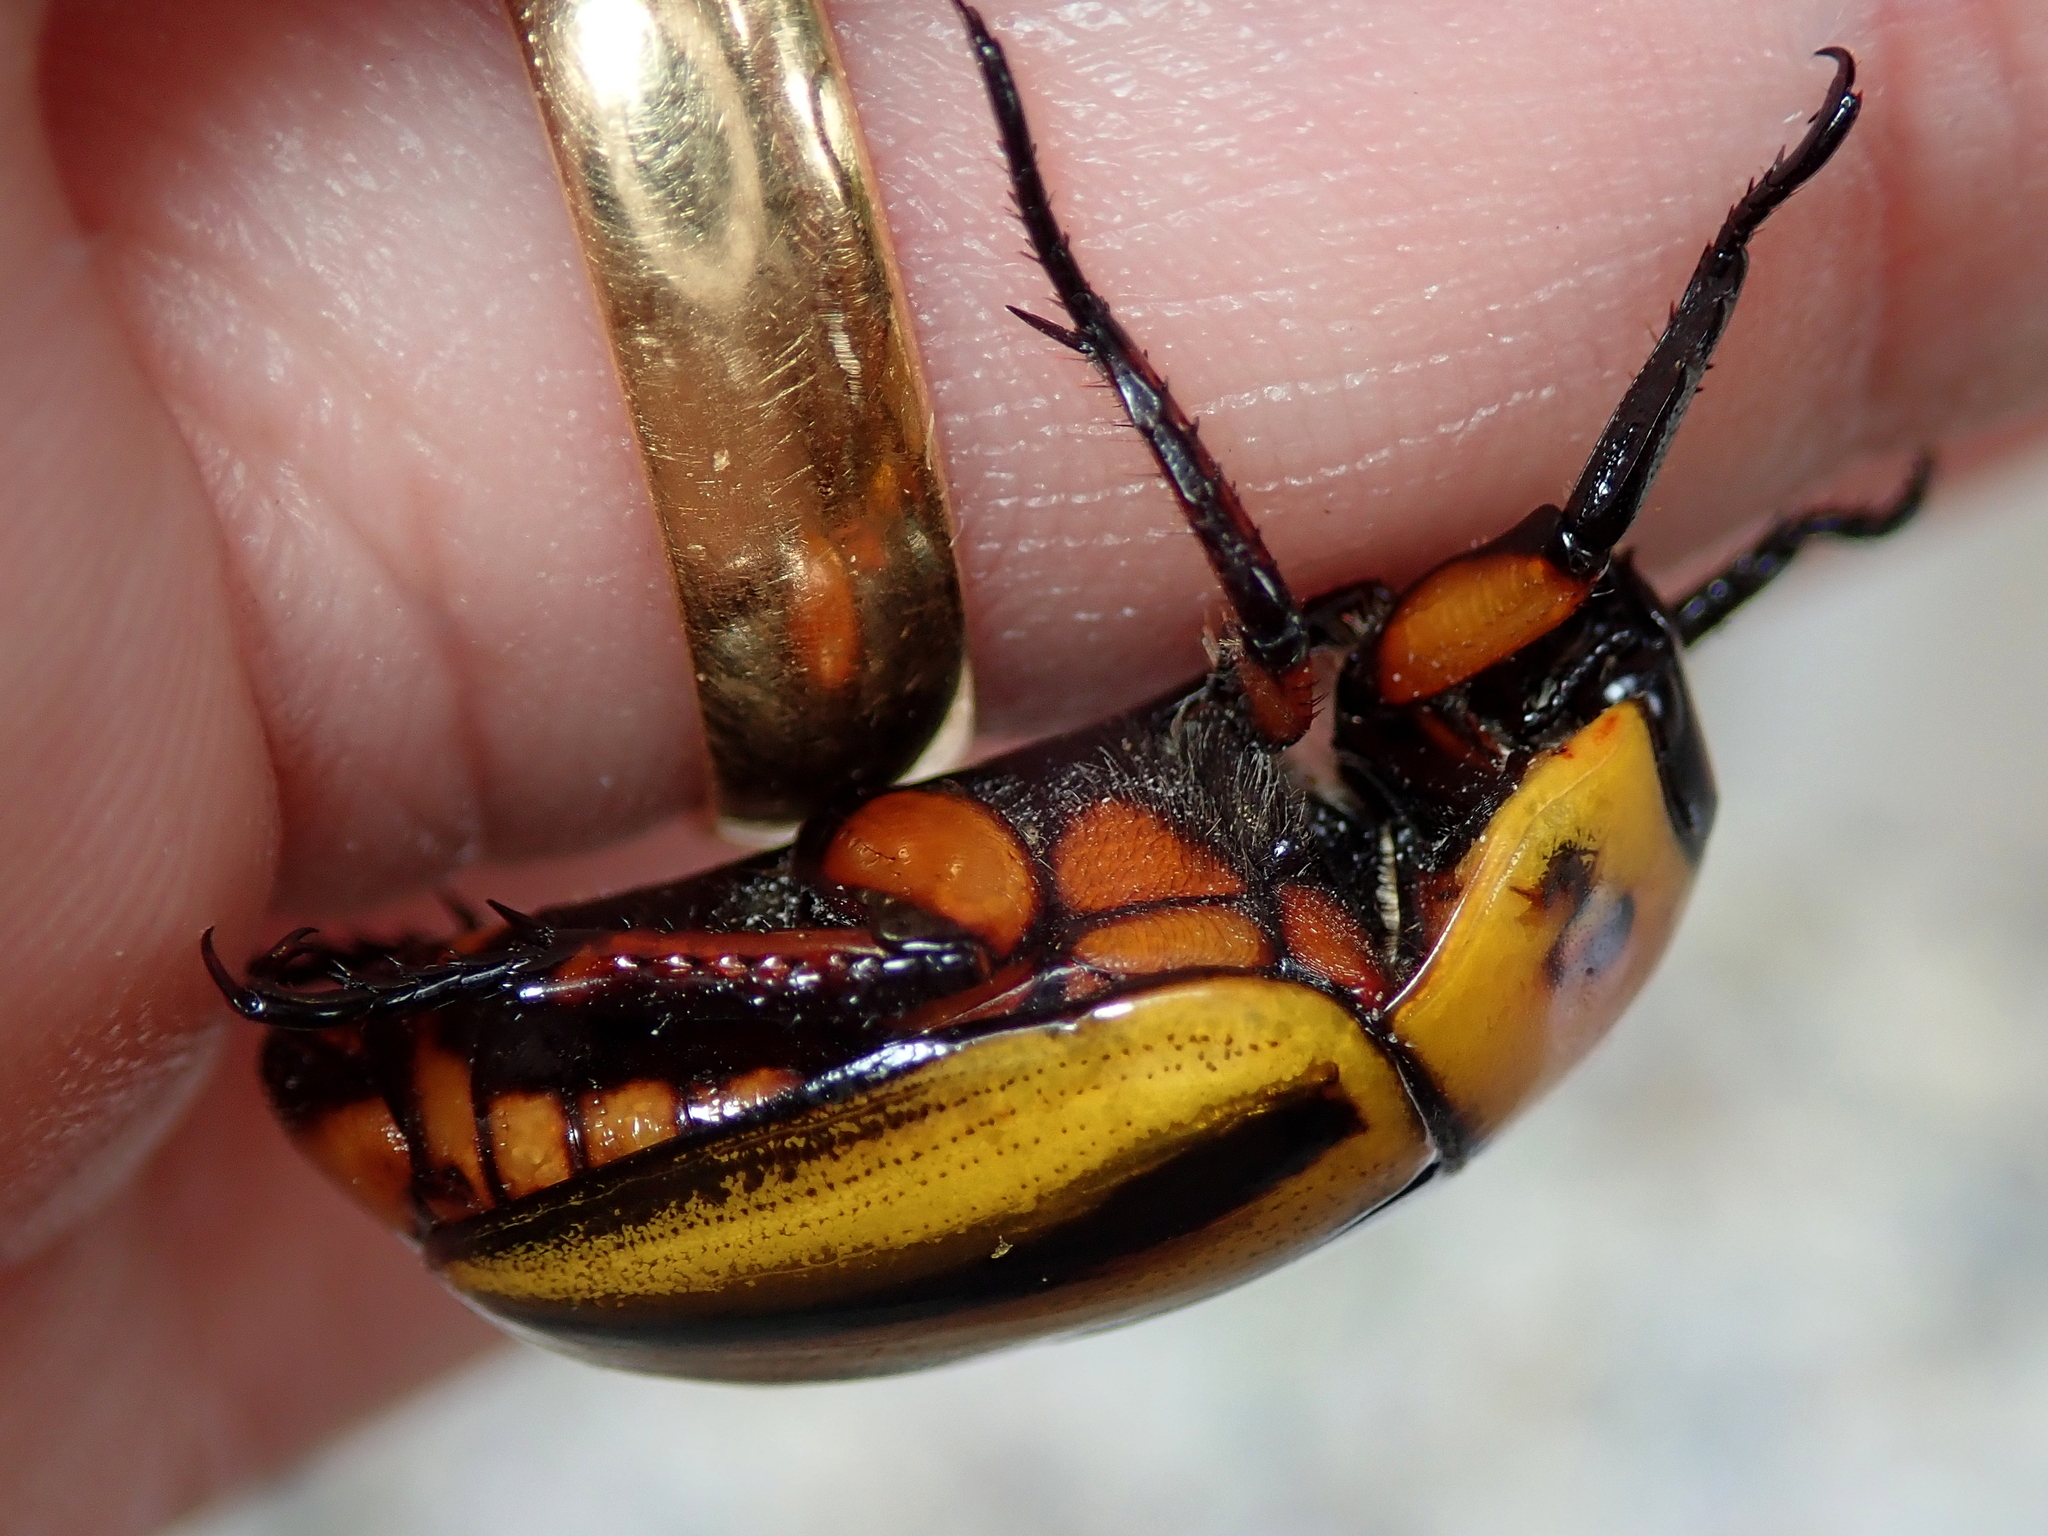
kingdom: Animalia
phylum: Arthropoda
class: Insecta
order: Coleoptera
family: Scarabaeidae
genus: Macraspis
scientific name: Macraspis cincta
